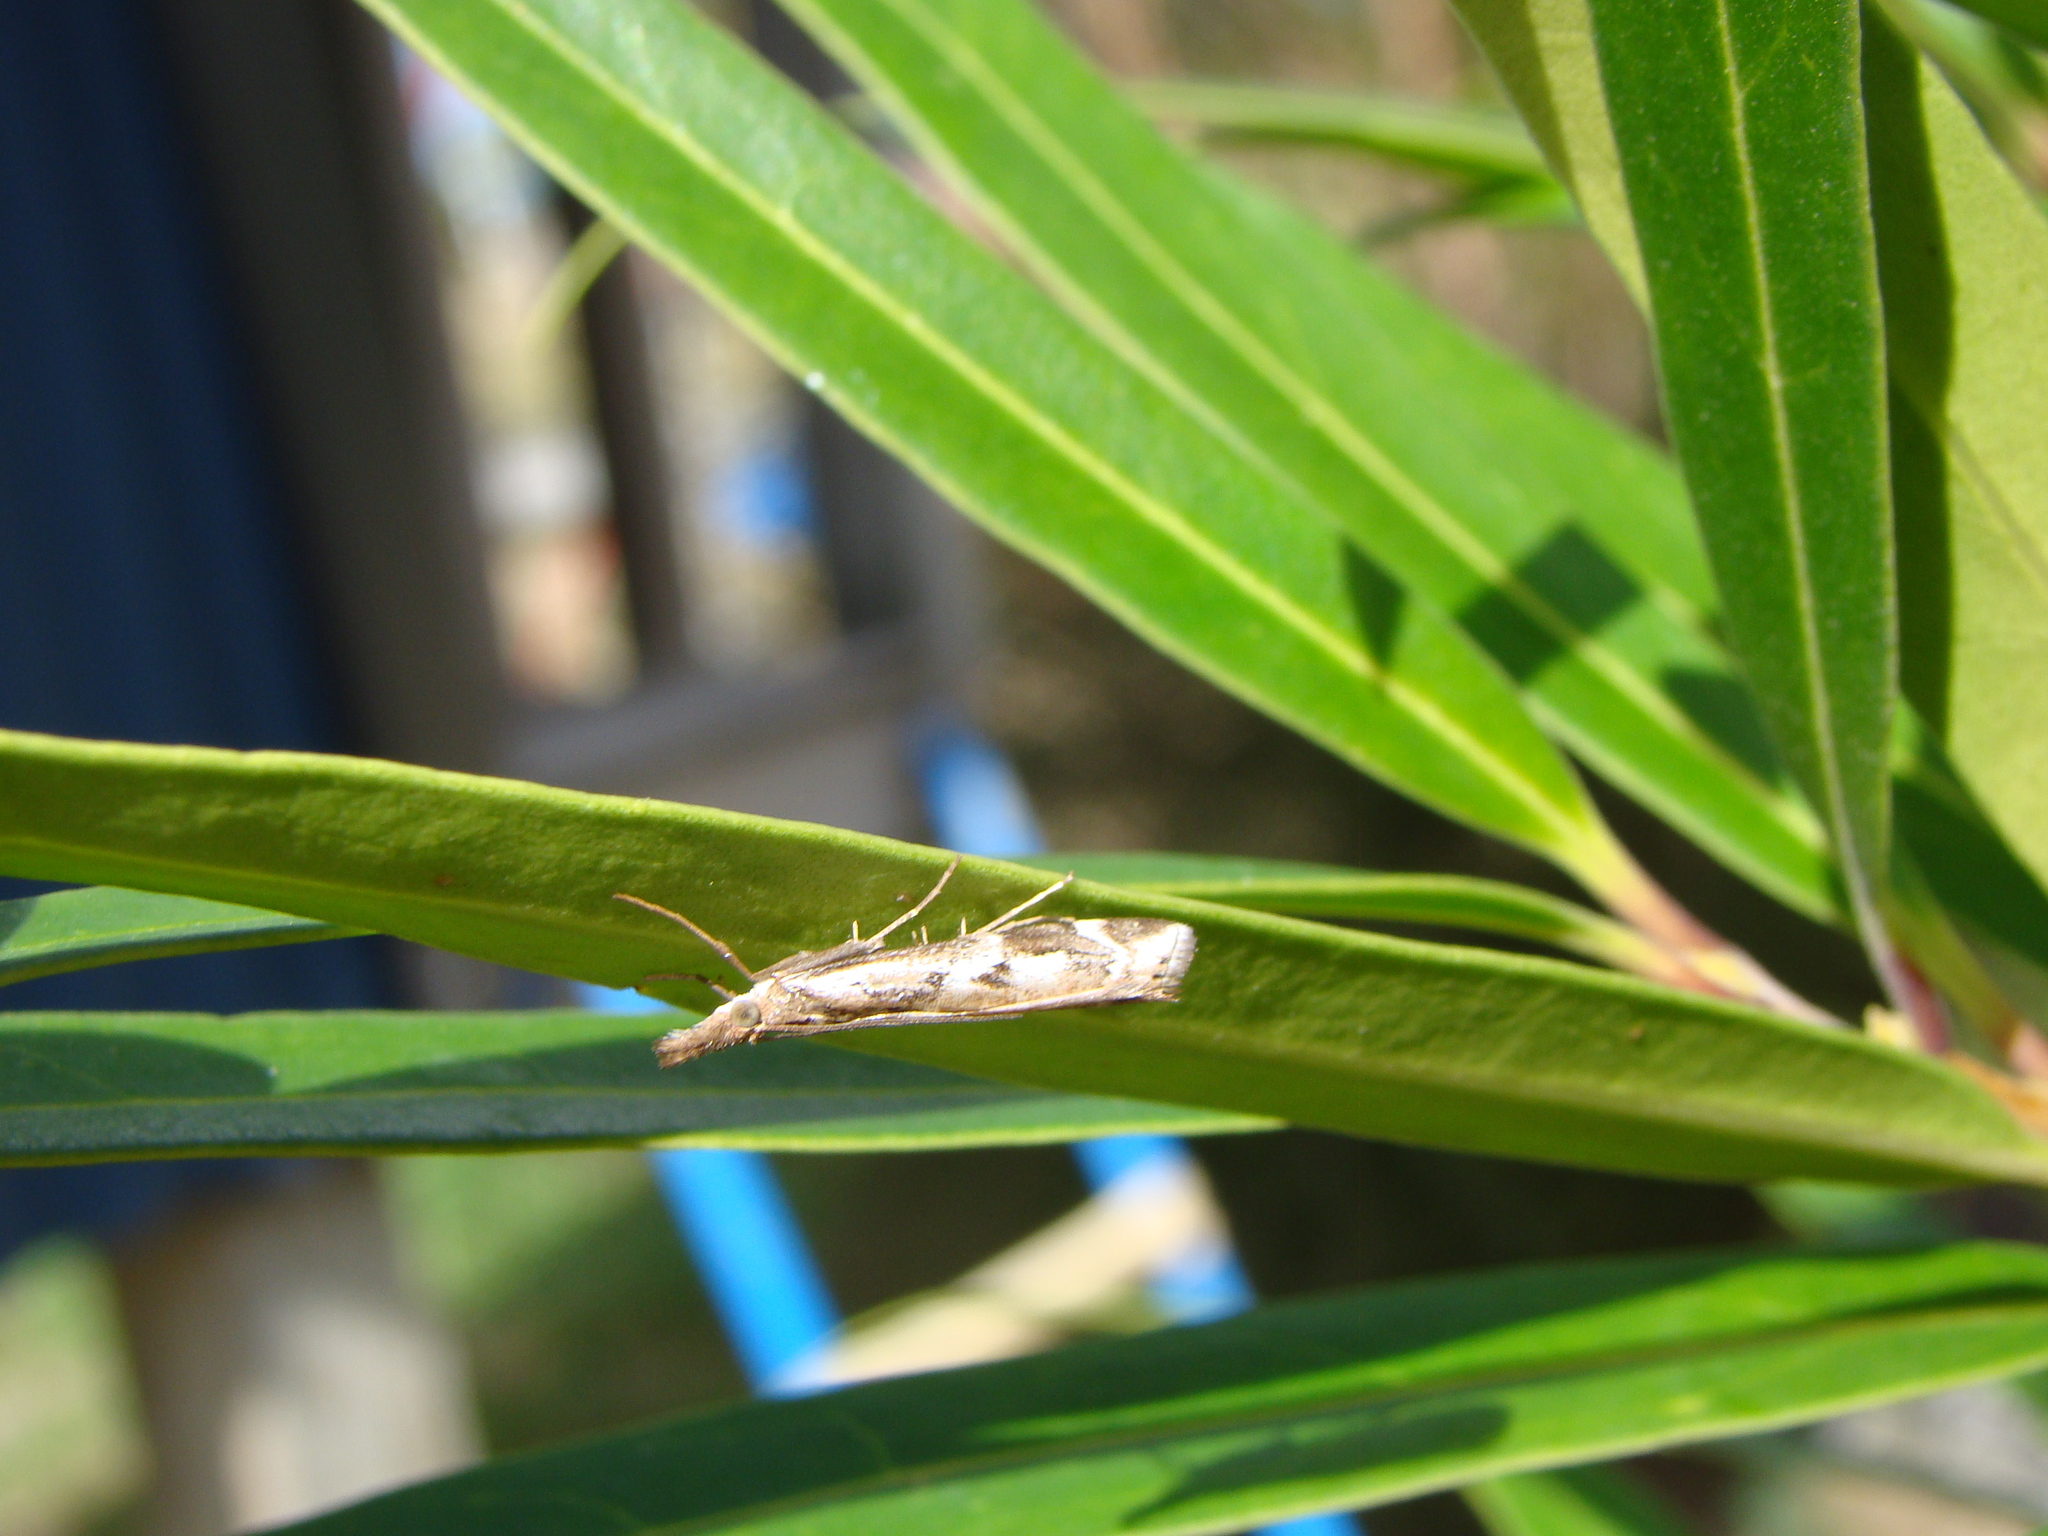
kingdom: Animalia
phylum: Arthropoda
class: Insecta
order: Lepidoptera
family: Crambidae
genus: Orocrambus
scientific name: Orocrambus vulgaris
